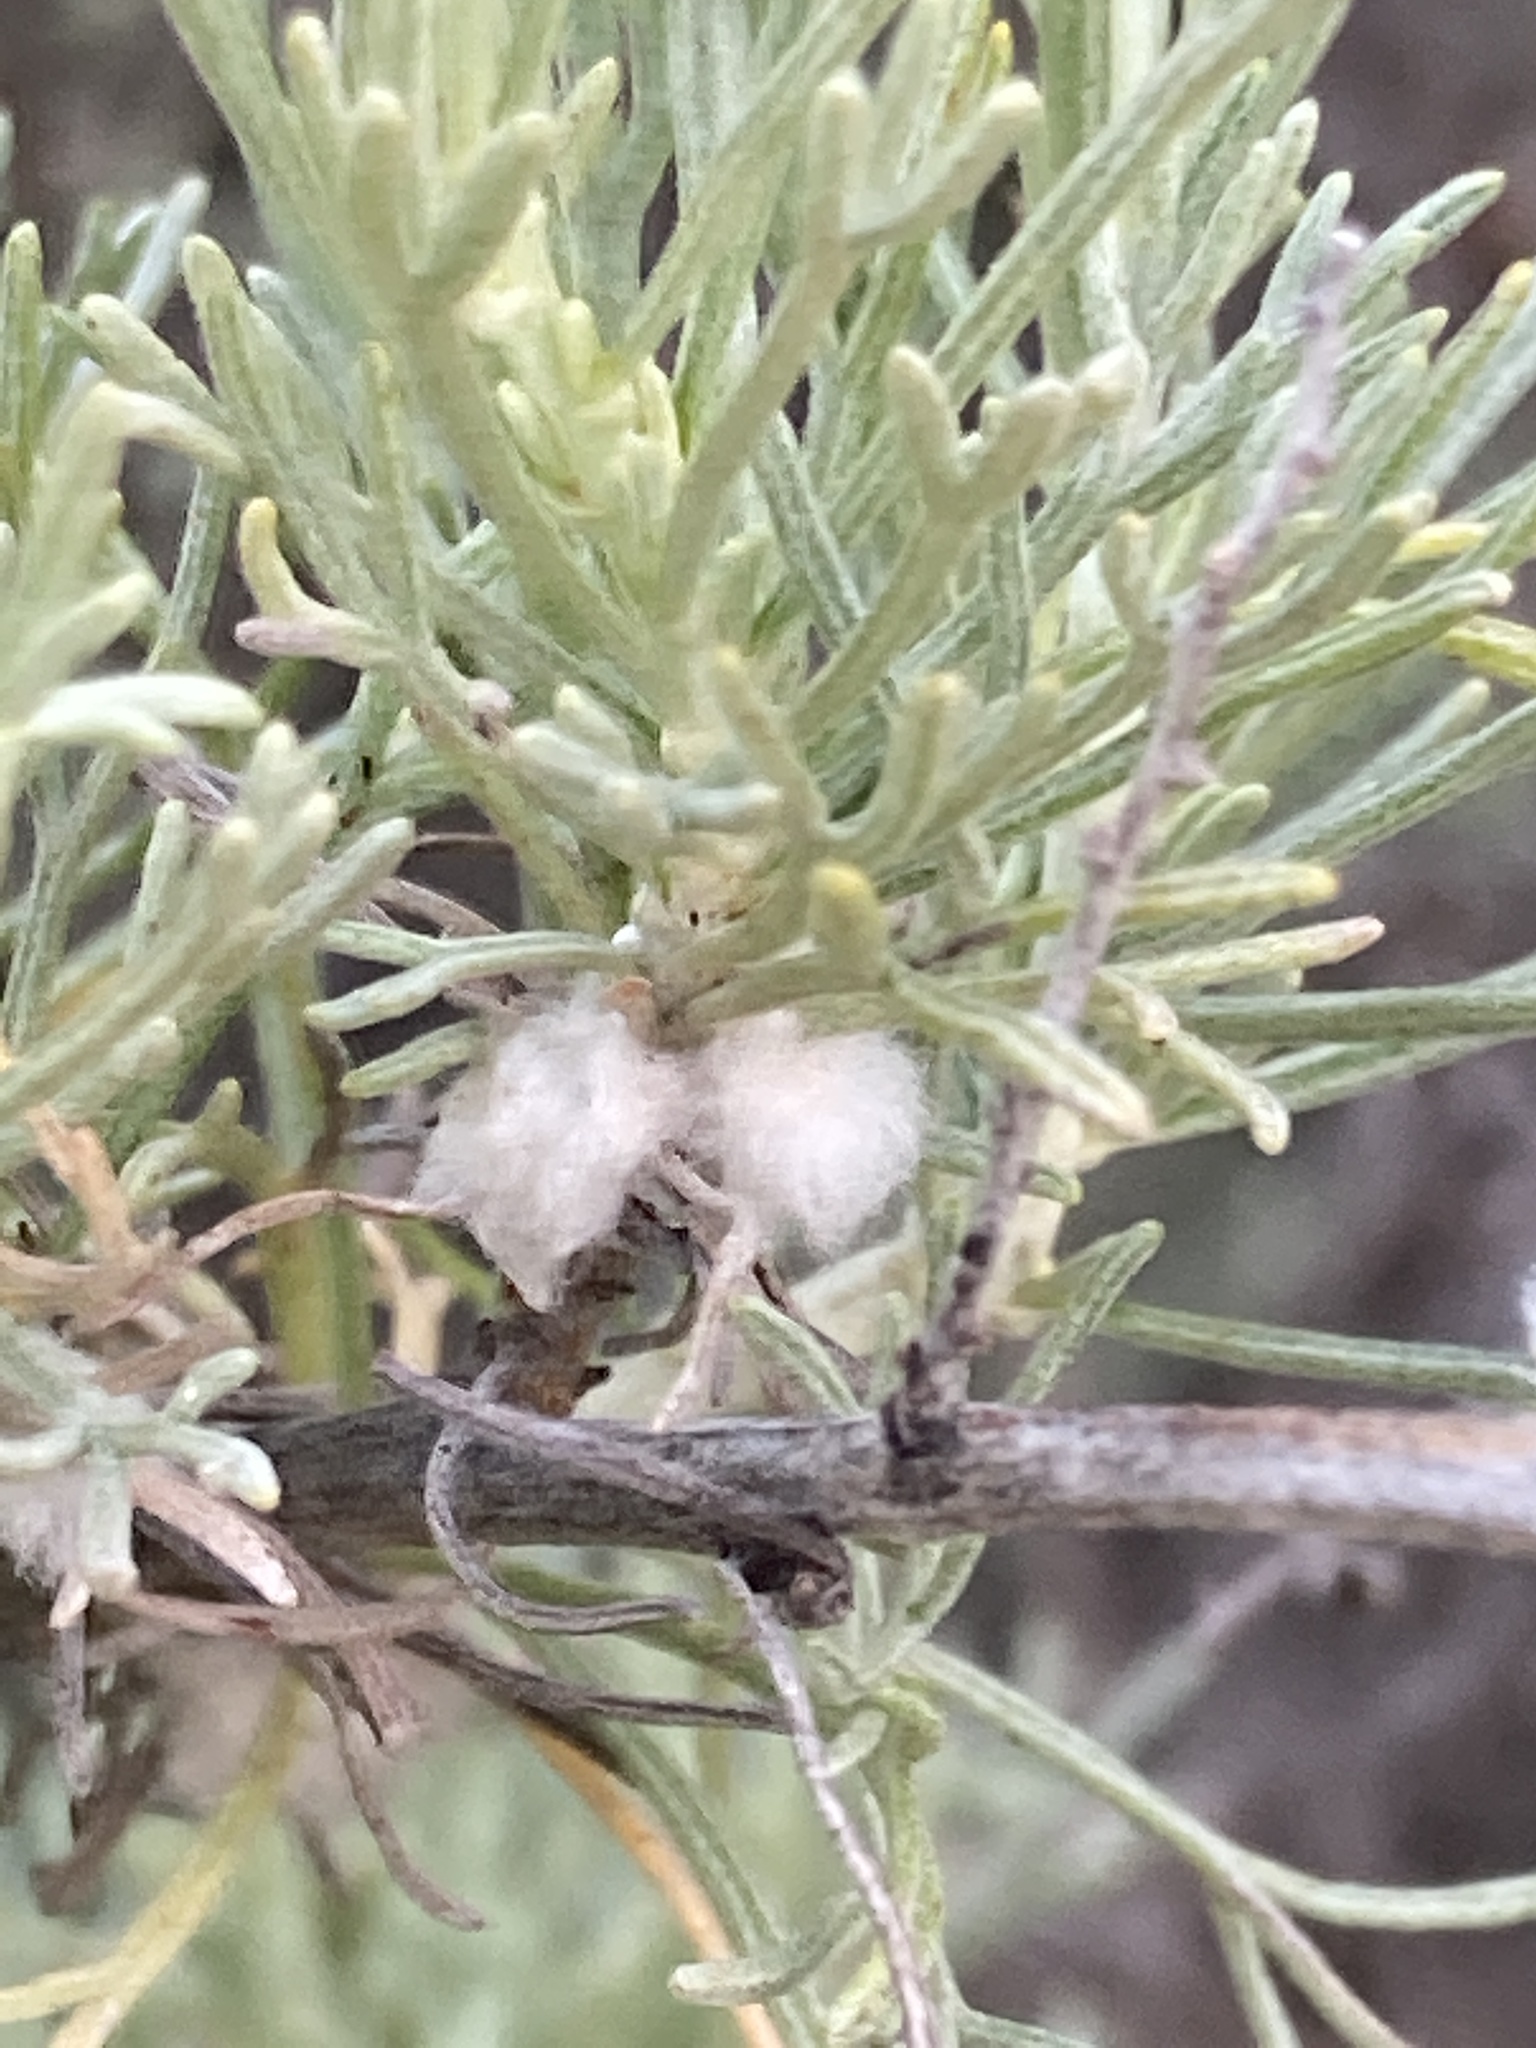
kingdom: Animalia
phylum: Arthropoda
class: Insecta
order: Diptera
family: Cecidomyiidae
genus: Rhopalomyia
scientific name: Rhopalomyia floccosa
